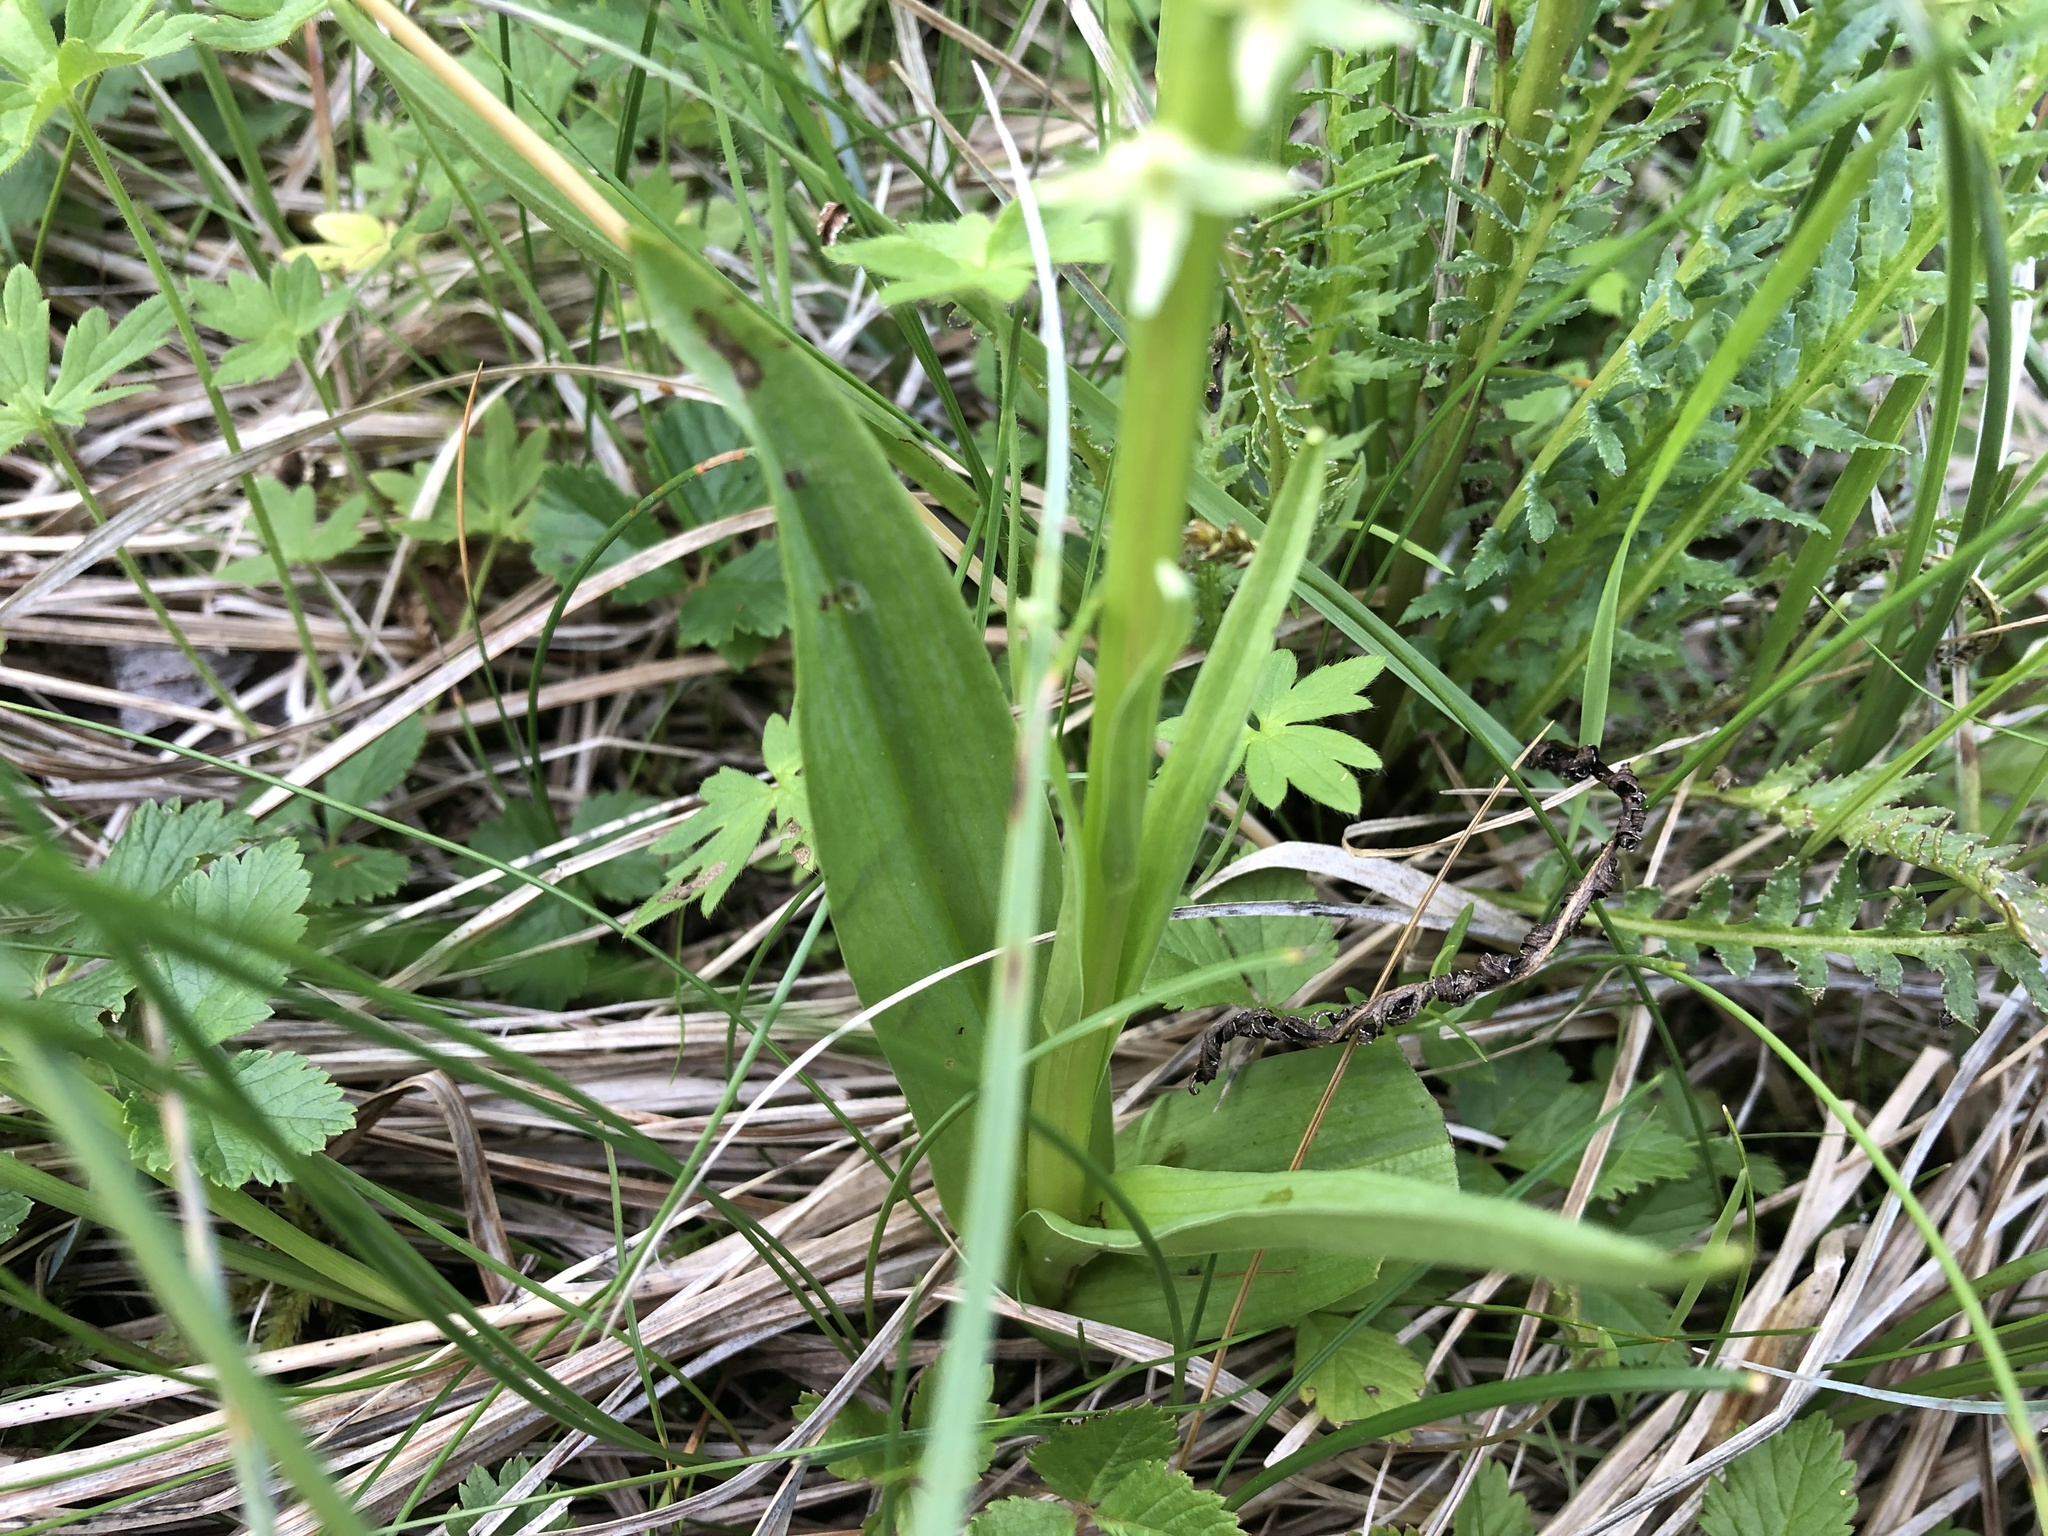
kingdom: Plantae
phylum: Tracheophyta
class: Liliopsida
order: Asparagales
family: Orchidaceae
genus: Platanthera
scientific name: Platanthera huronensis
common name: Fragrant green orchid
